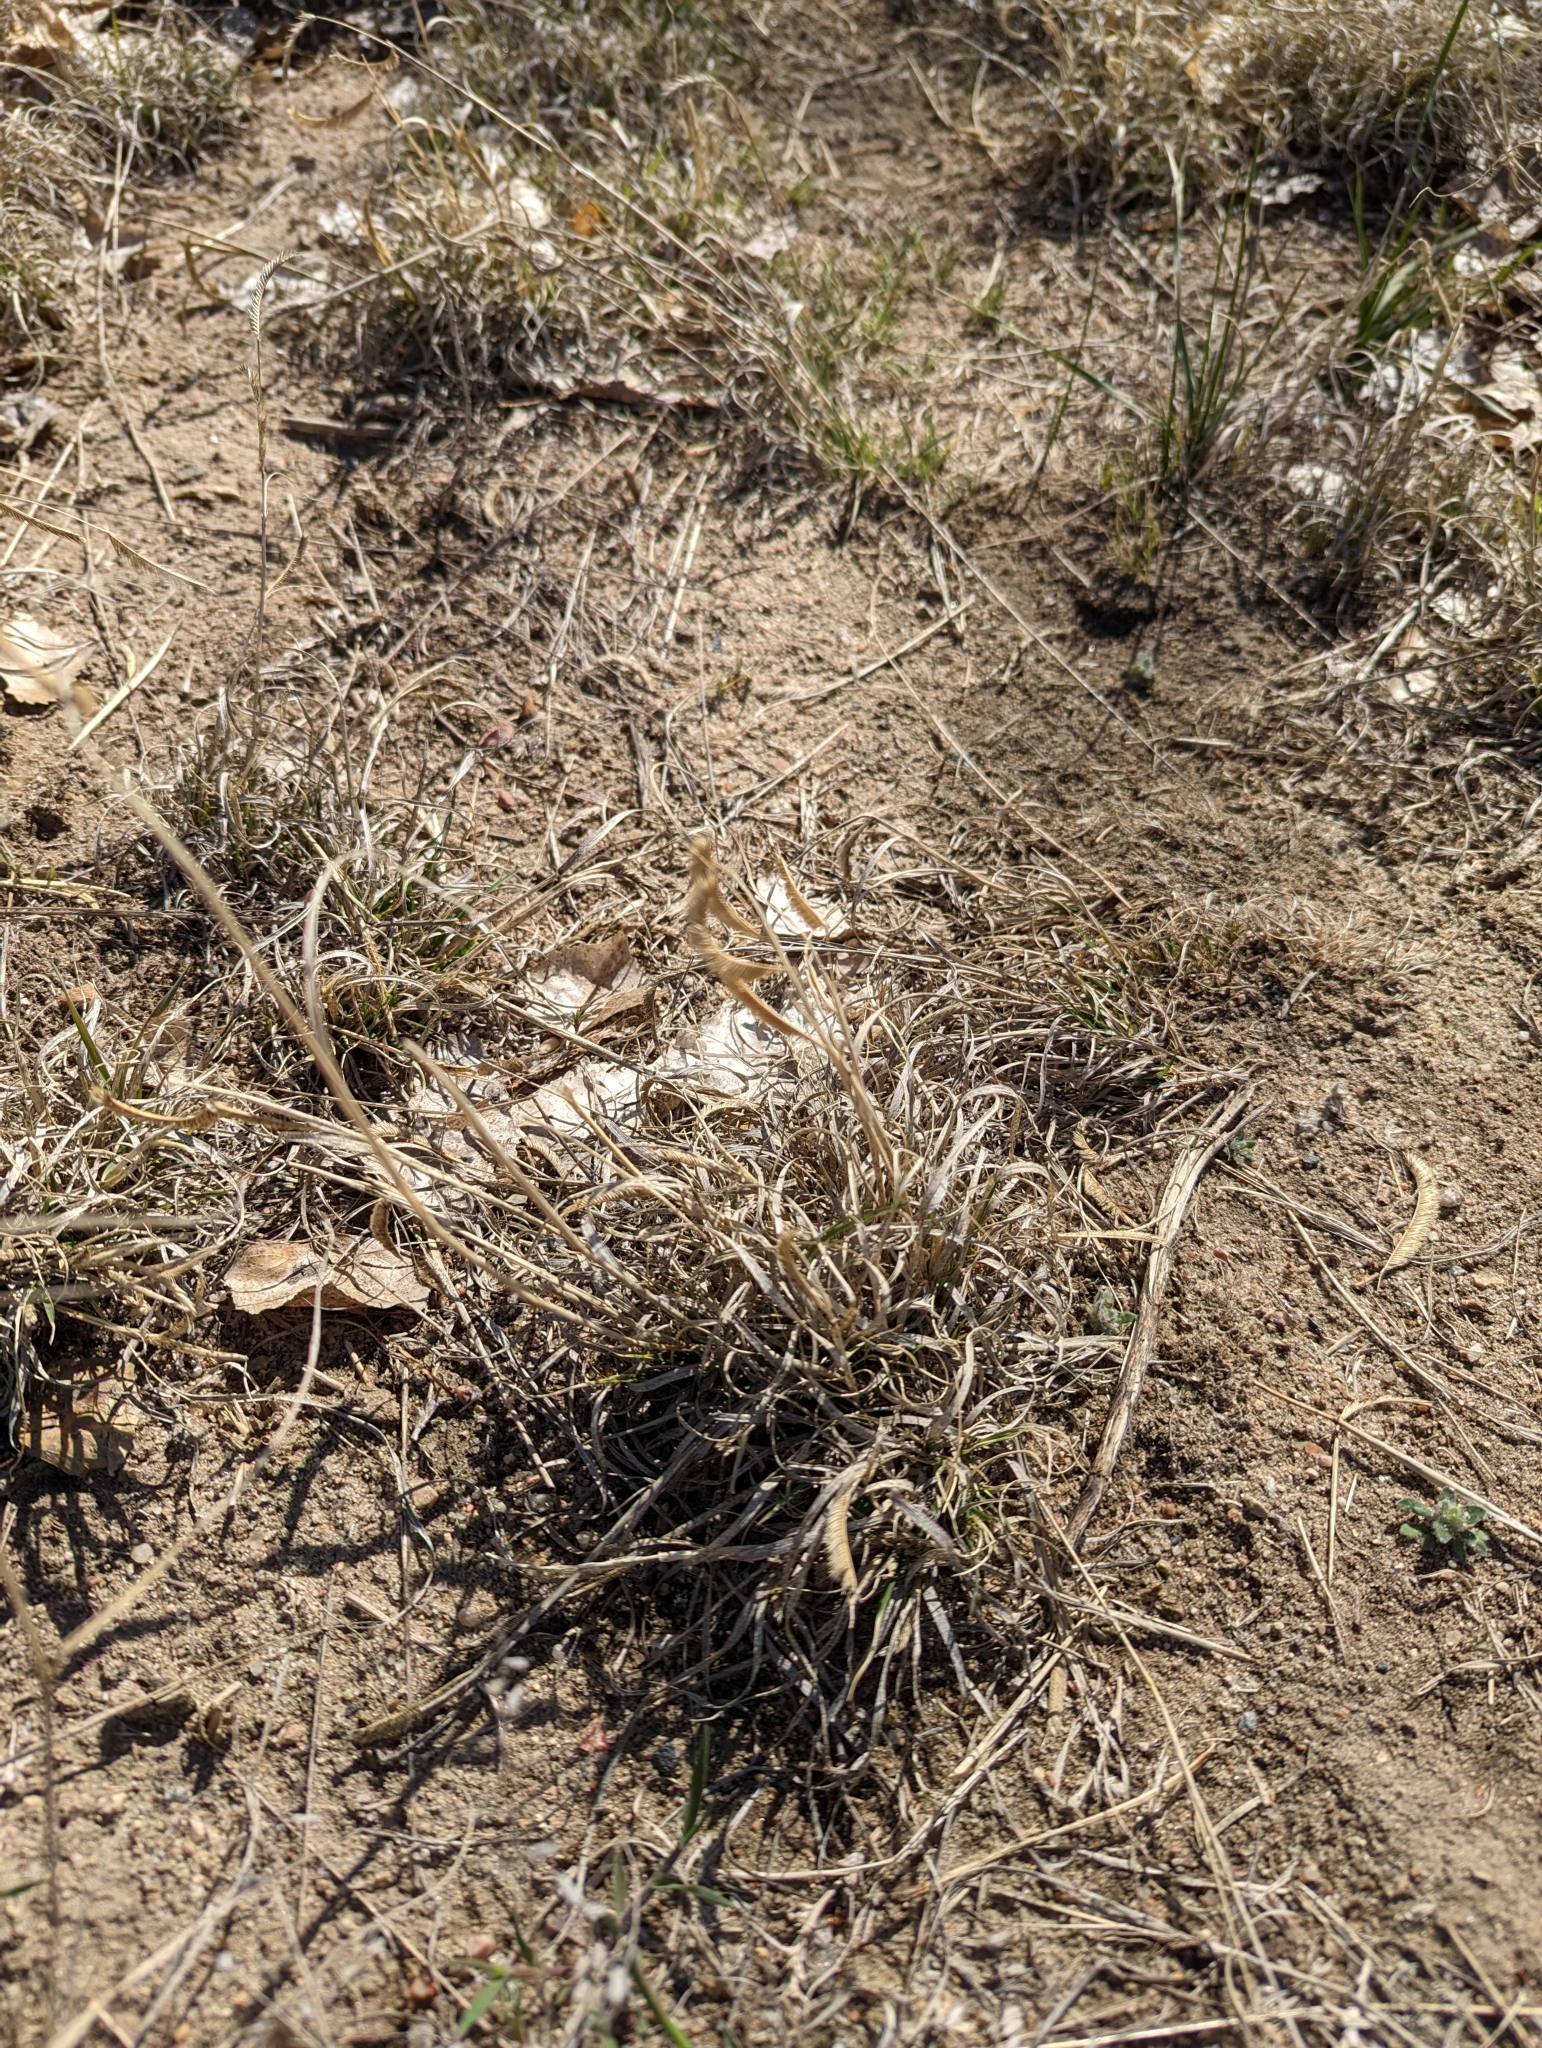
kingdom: Plantae
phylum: Tracheophyta
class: Liliopsida
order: Poales
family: Poaceae
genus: Bouteloua
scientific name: Bouteloua gracilis
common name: Blue grama
